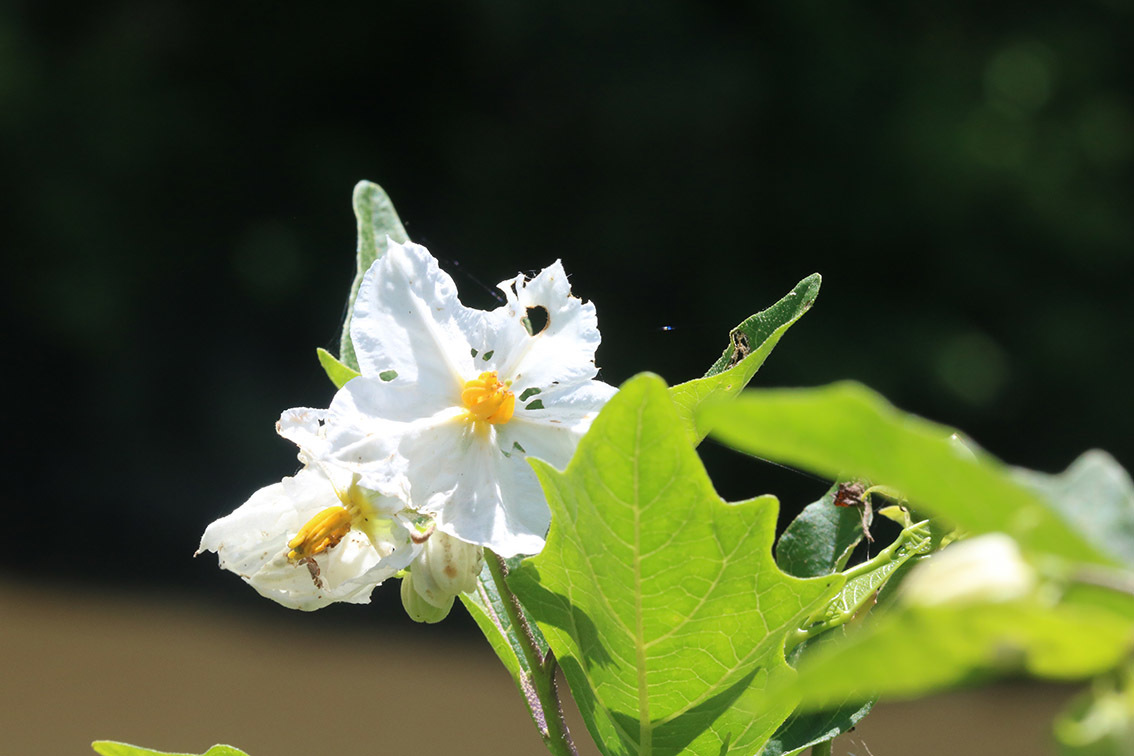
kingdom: Plantae
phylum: Tracheophyta
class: Magnoliopsida
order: Solanales
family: Solanaceae
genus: Solanum
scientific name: Solanum bonariense
